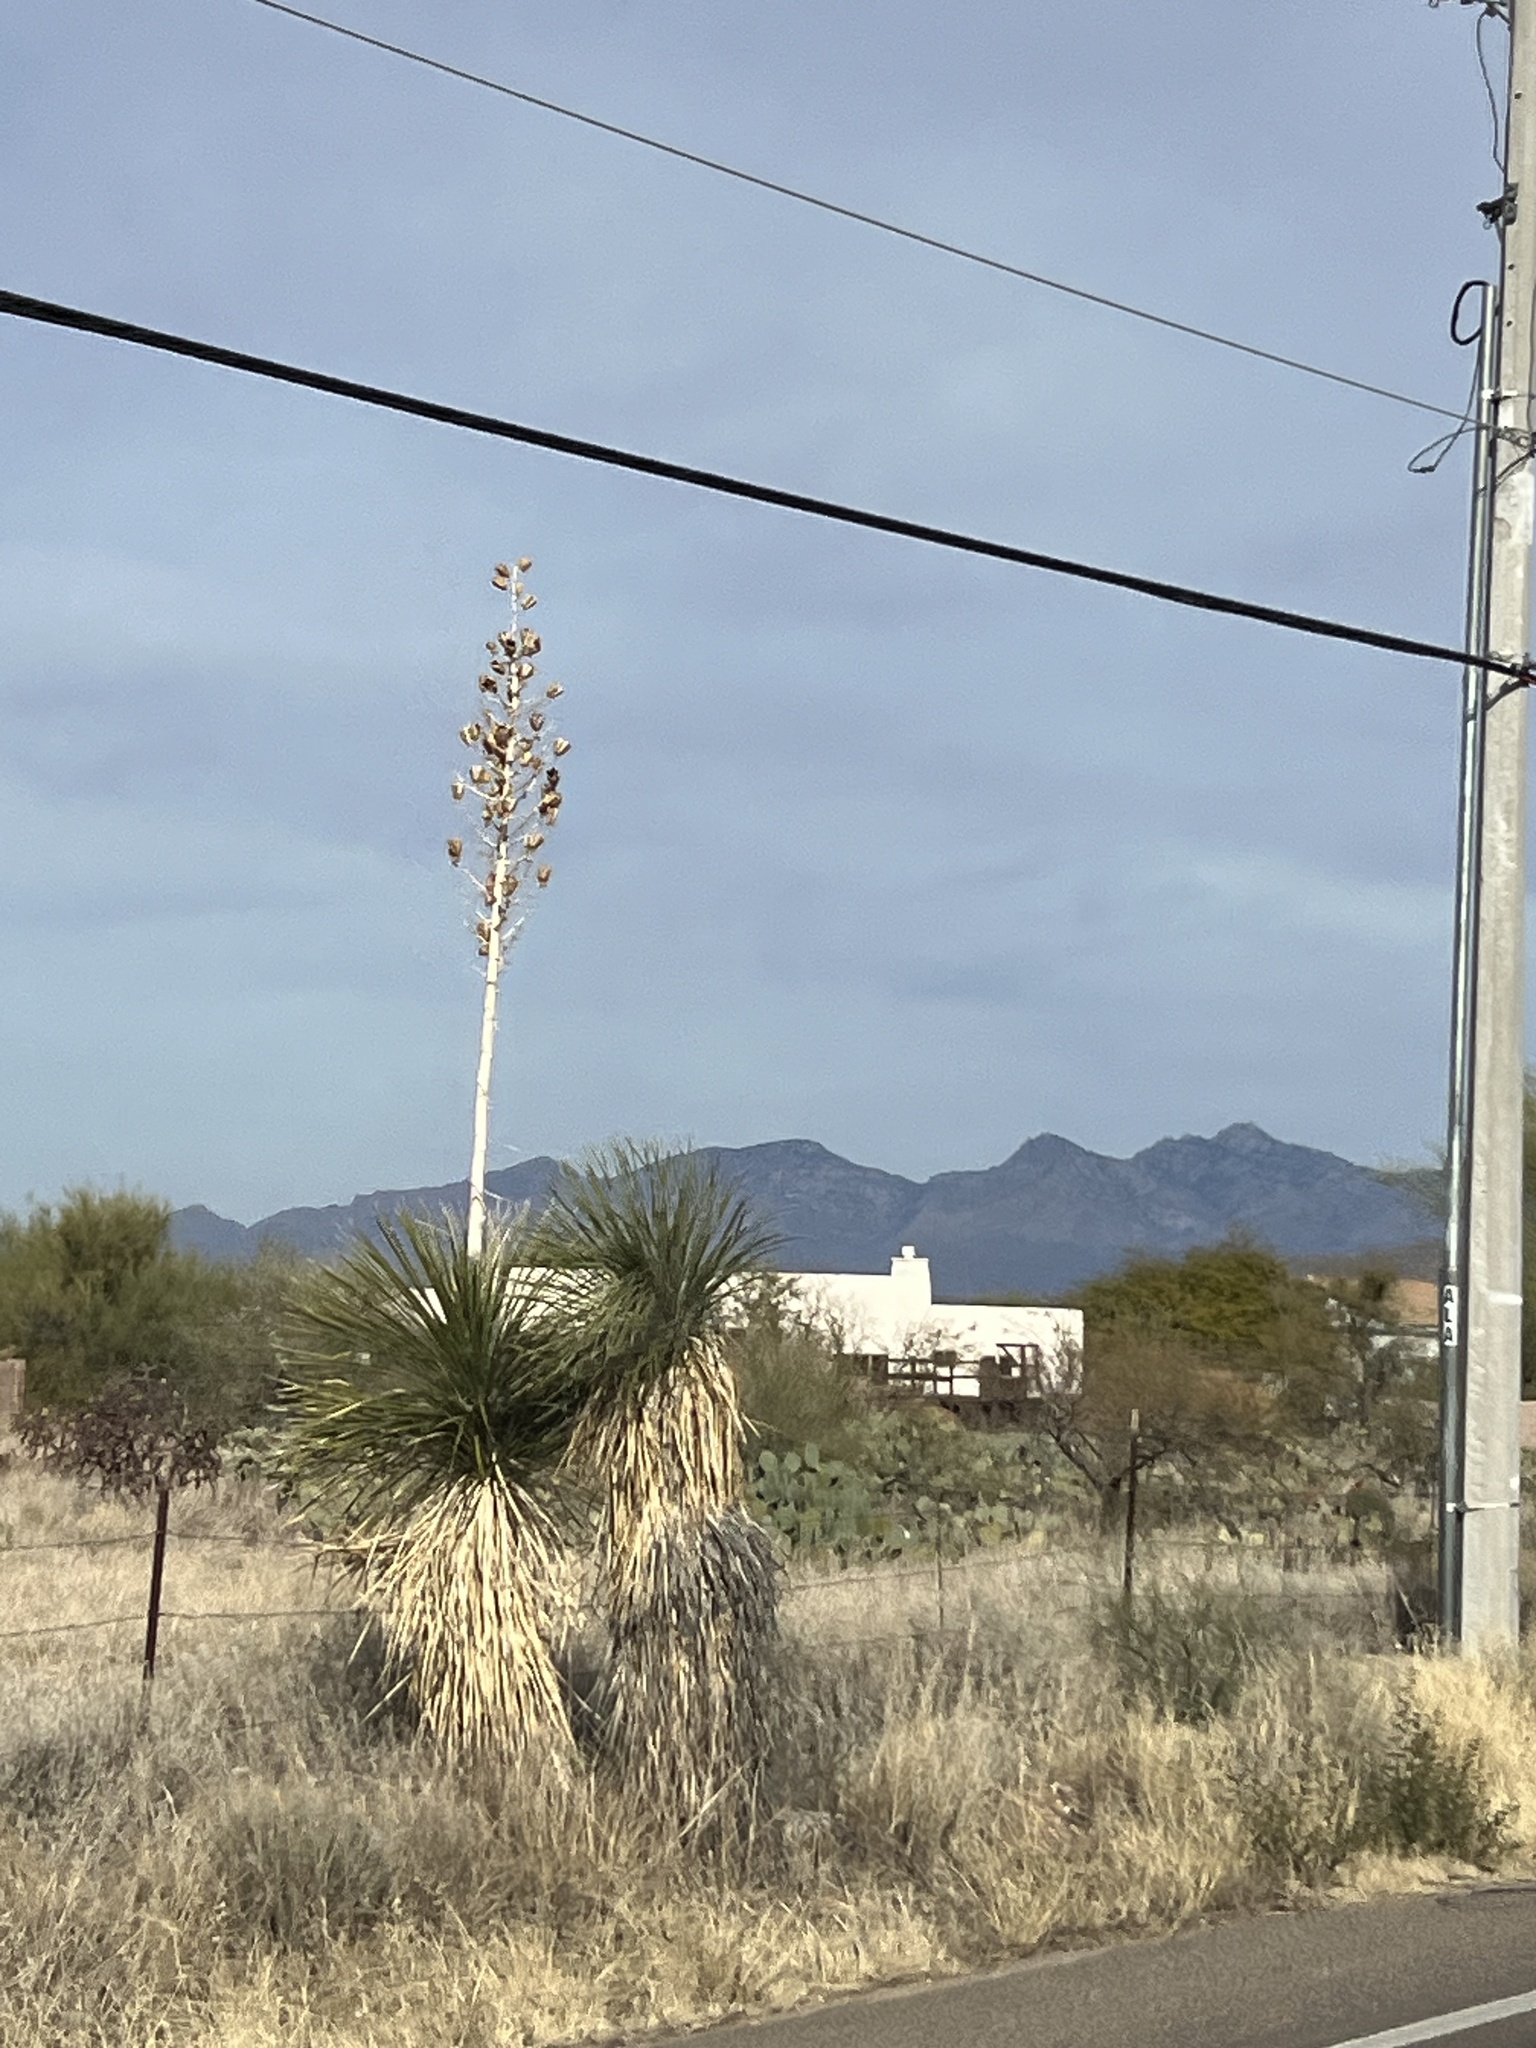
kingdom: Plantae
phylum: Tracheophyta
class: Liliopsida
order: Asparagales
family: Asparagaceae
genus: Yucca
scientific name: Yucca elata
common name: Palmella
